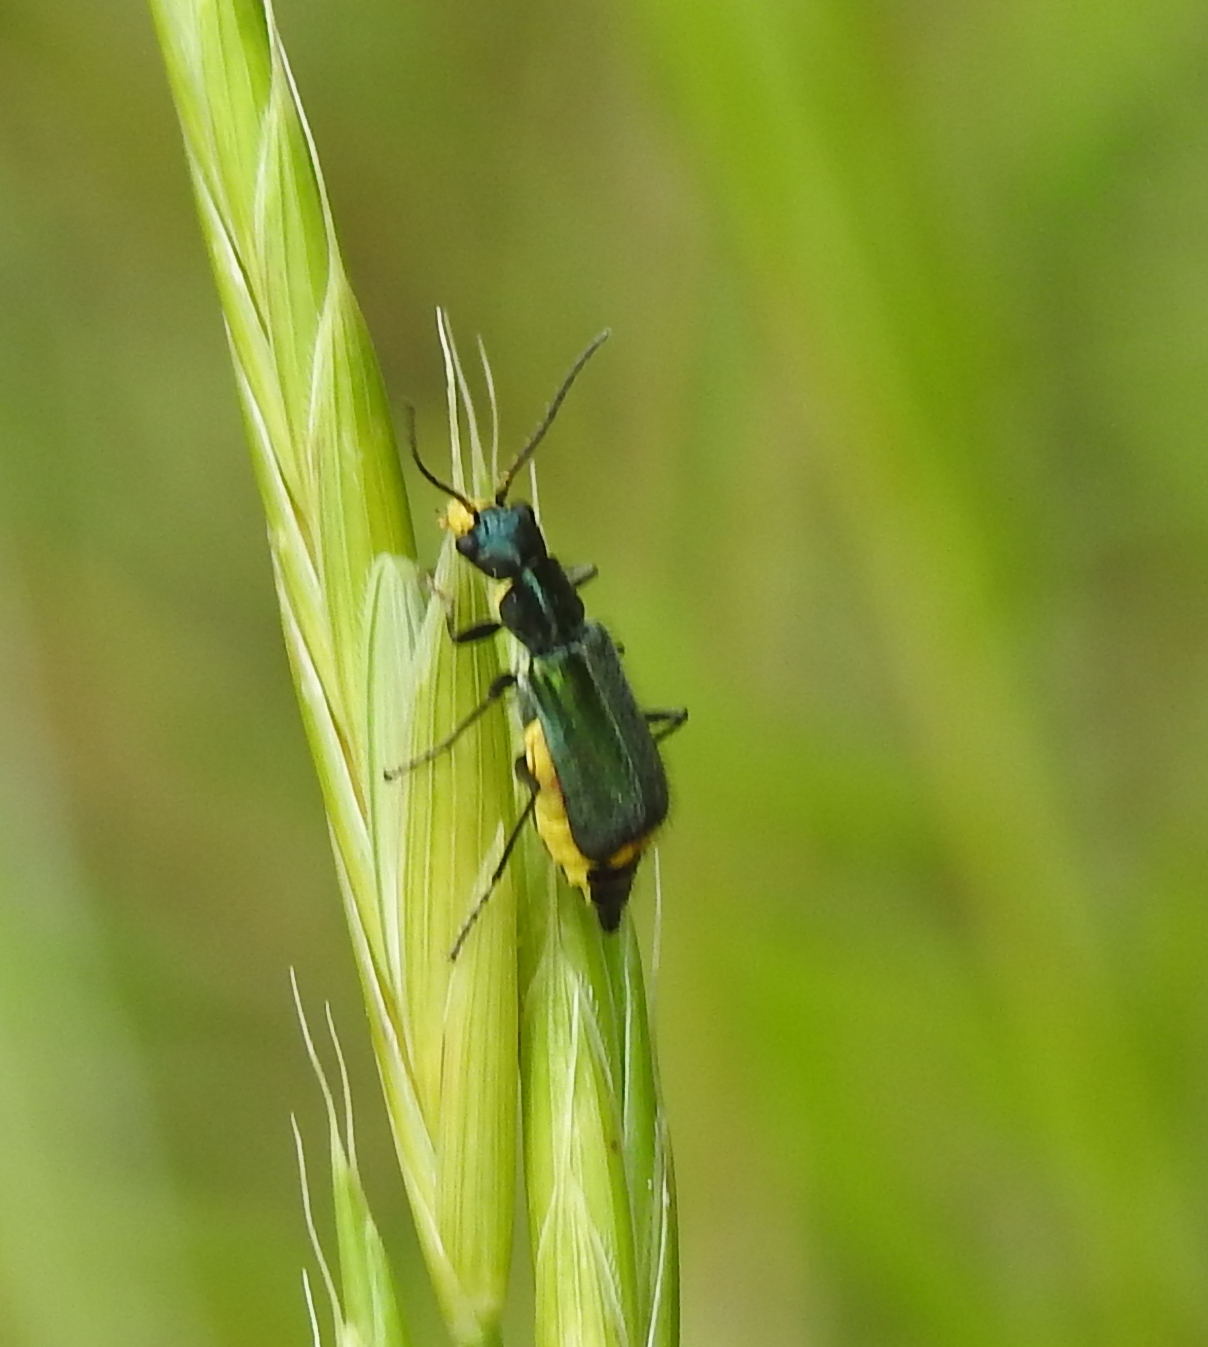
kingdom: Animalia
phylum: Arthropoda
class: Insecta
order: Coleoptera
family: Malachiidae
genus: Clanoptilus
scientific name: Clanoptilus emarginatus
